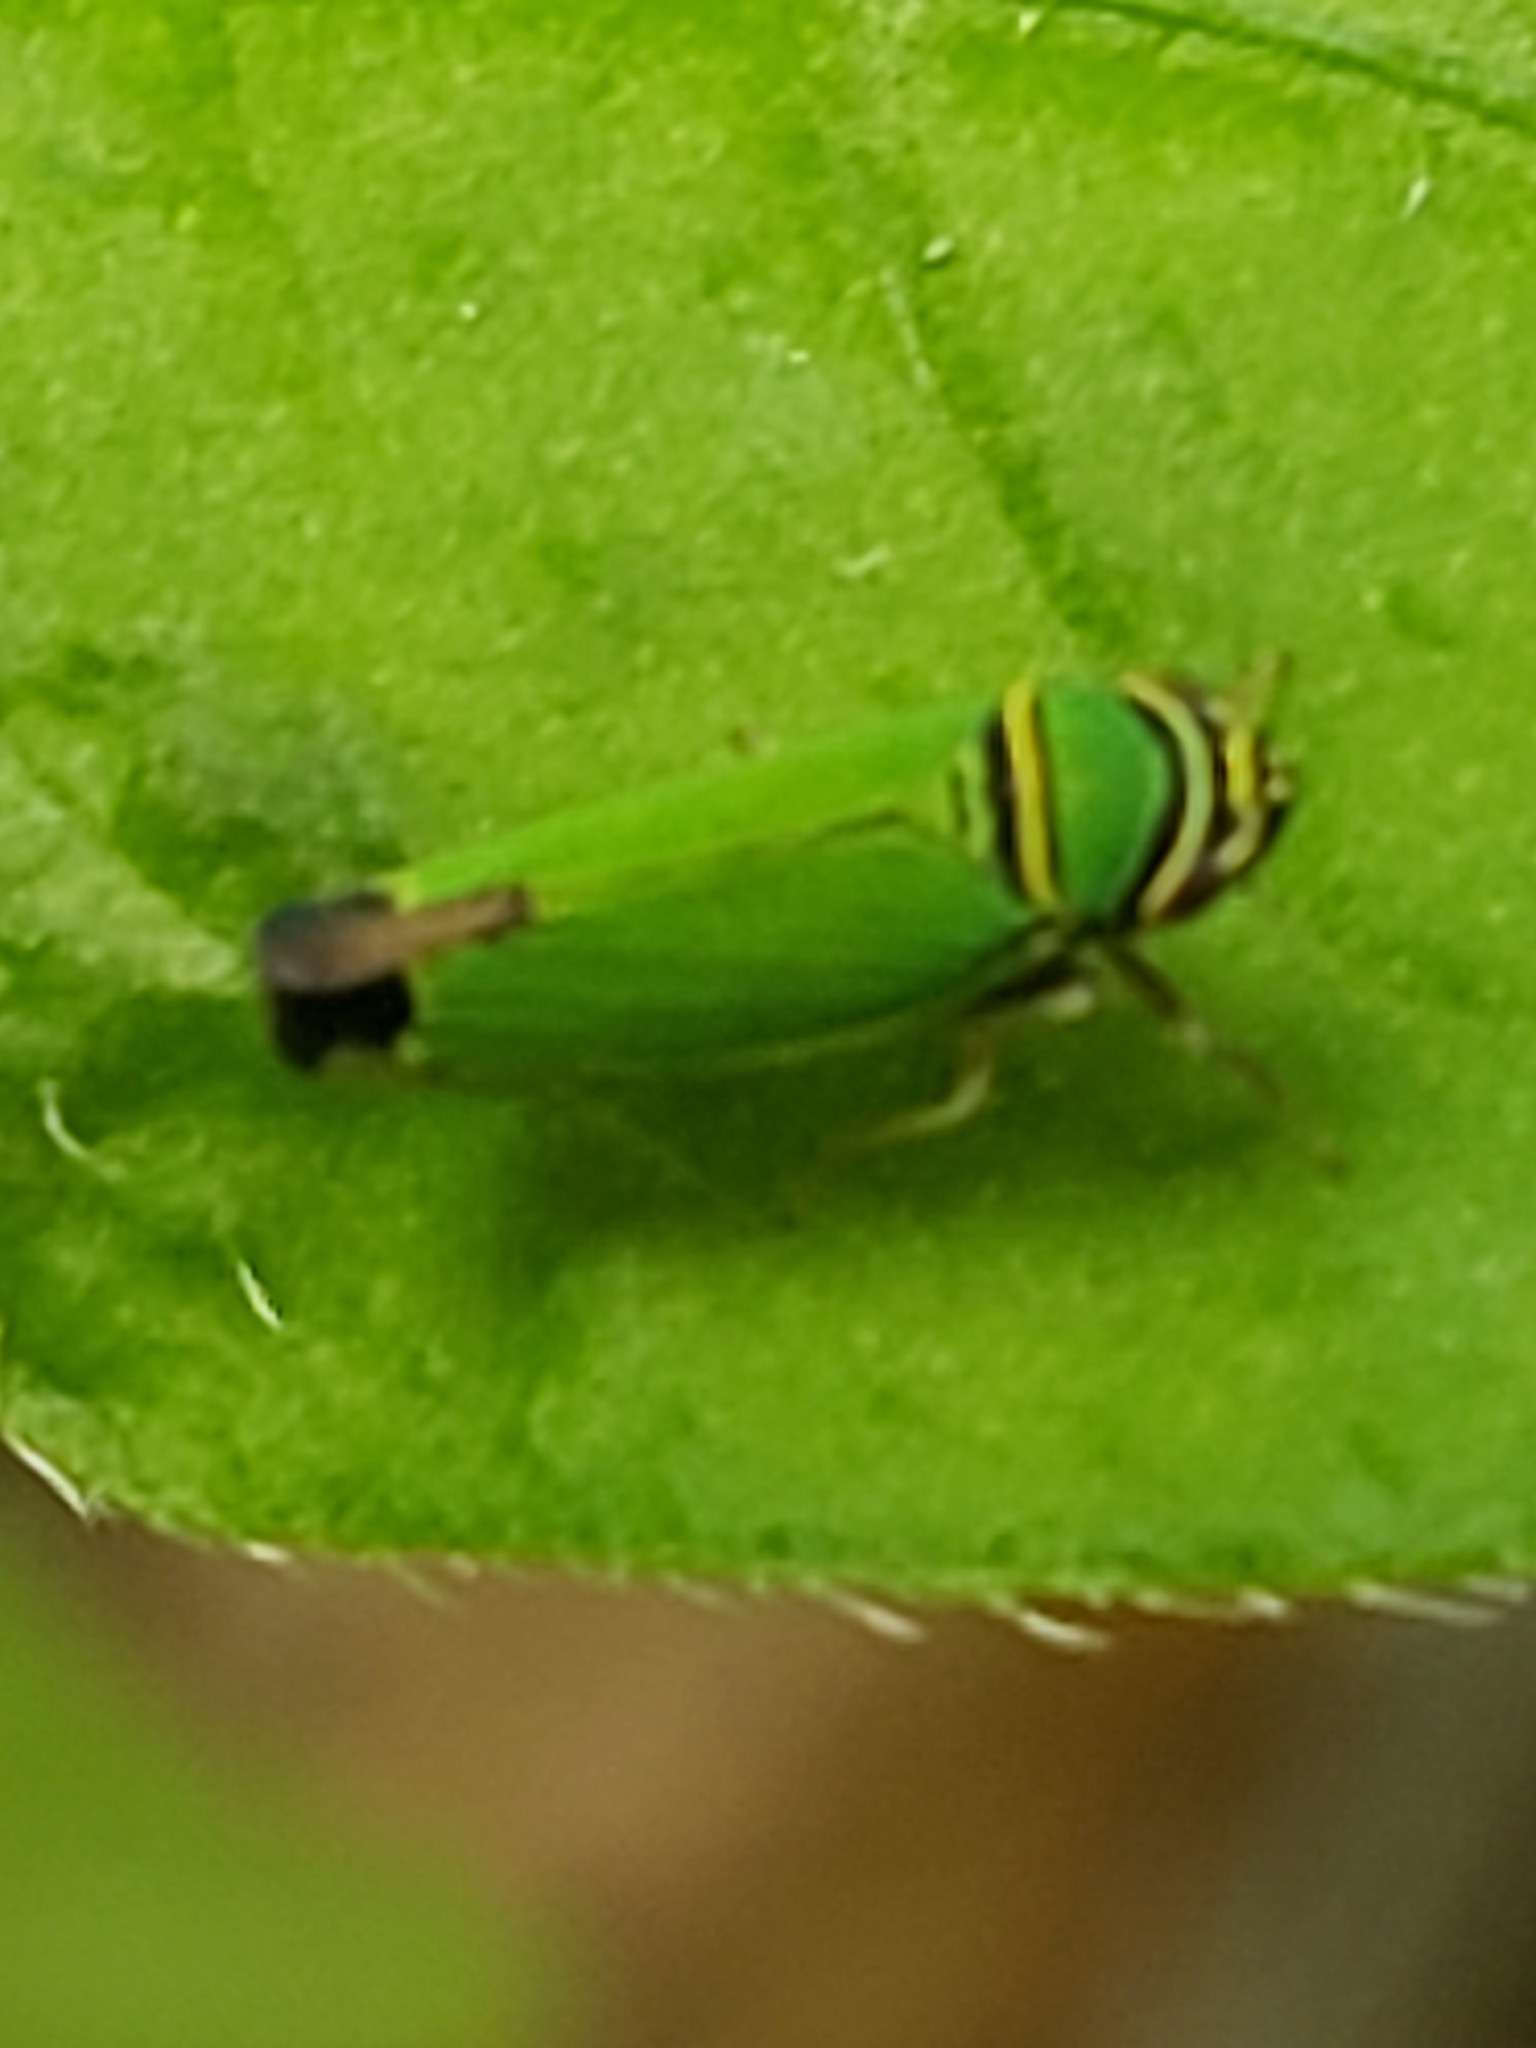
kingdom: Animalia
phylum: Arthropoda
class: Insecta
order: Hemiptera
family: Cicadellidae
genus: Tylozygus
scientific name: Tylozygus geometricus
